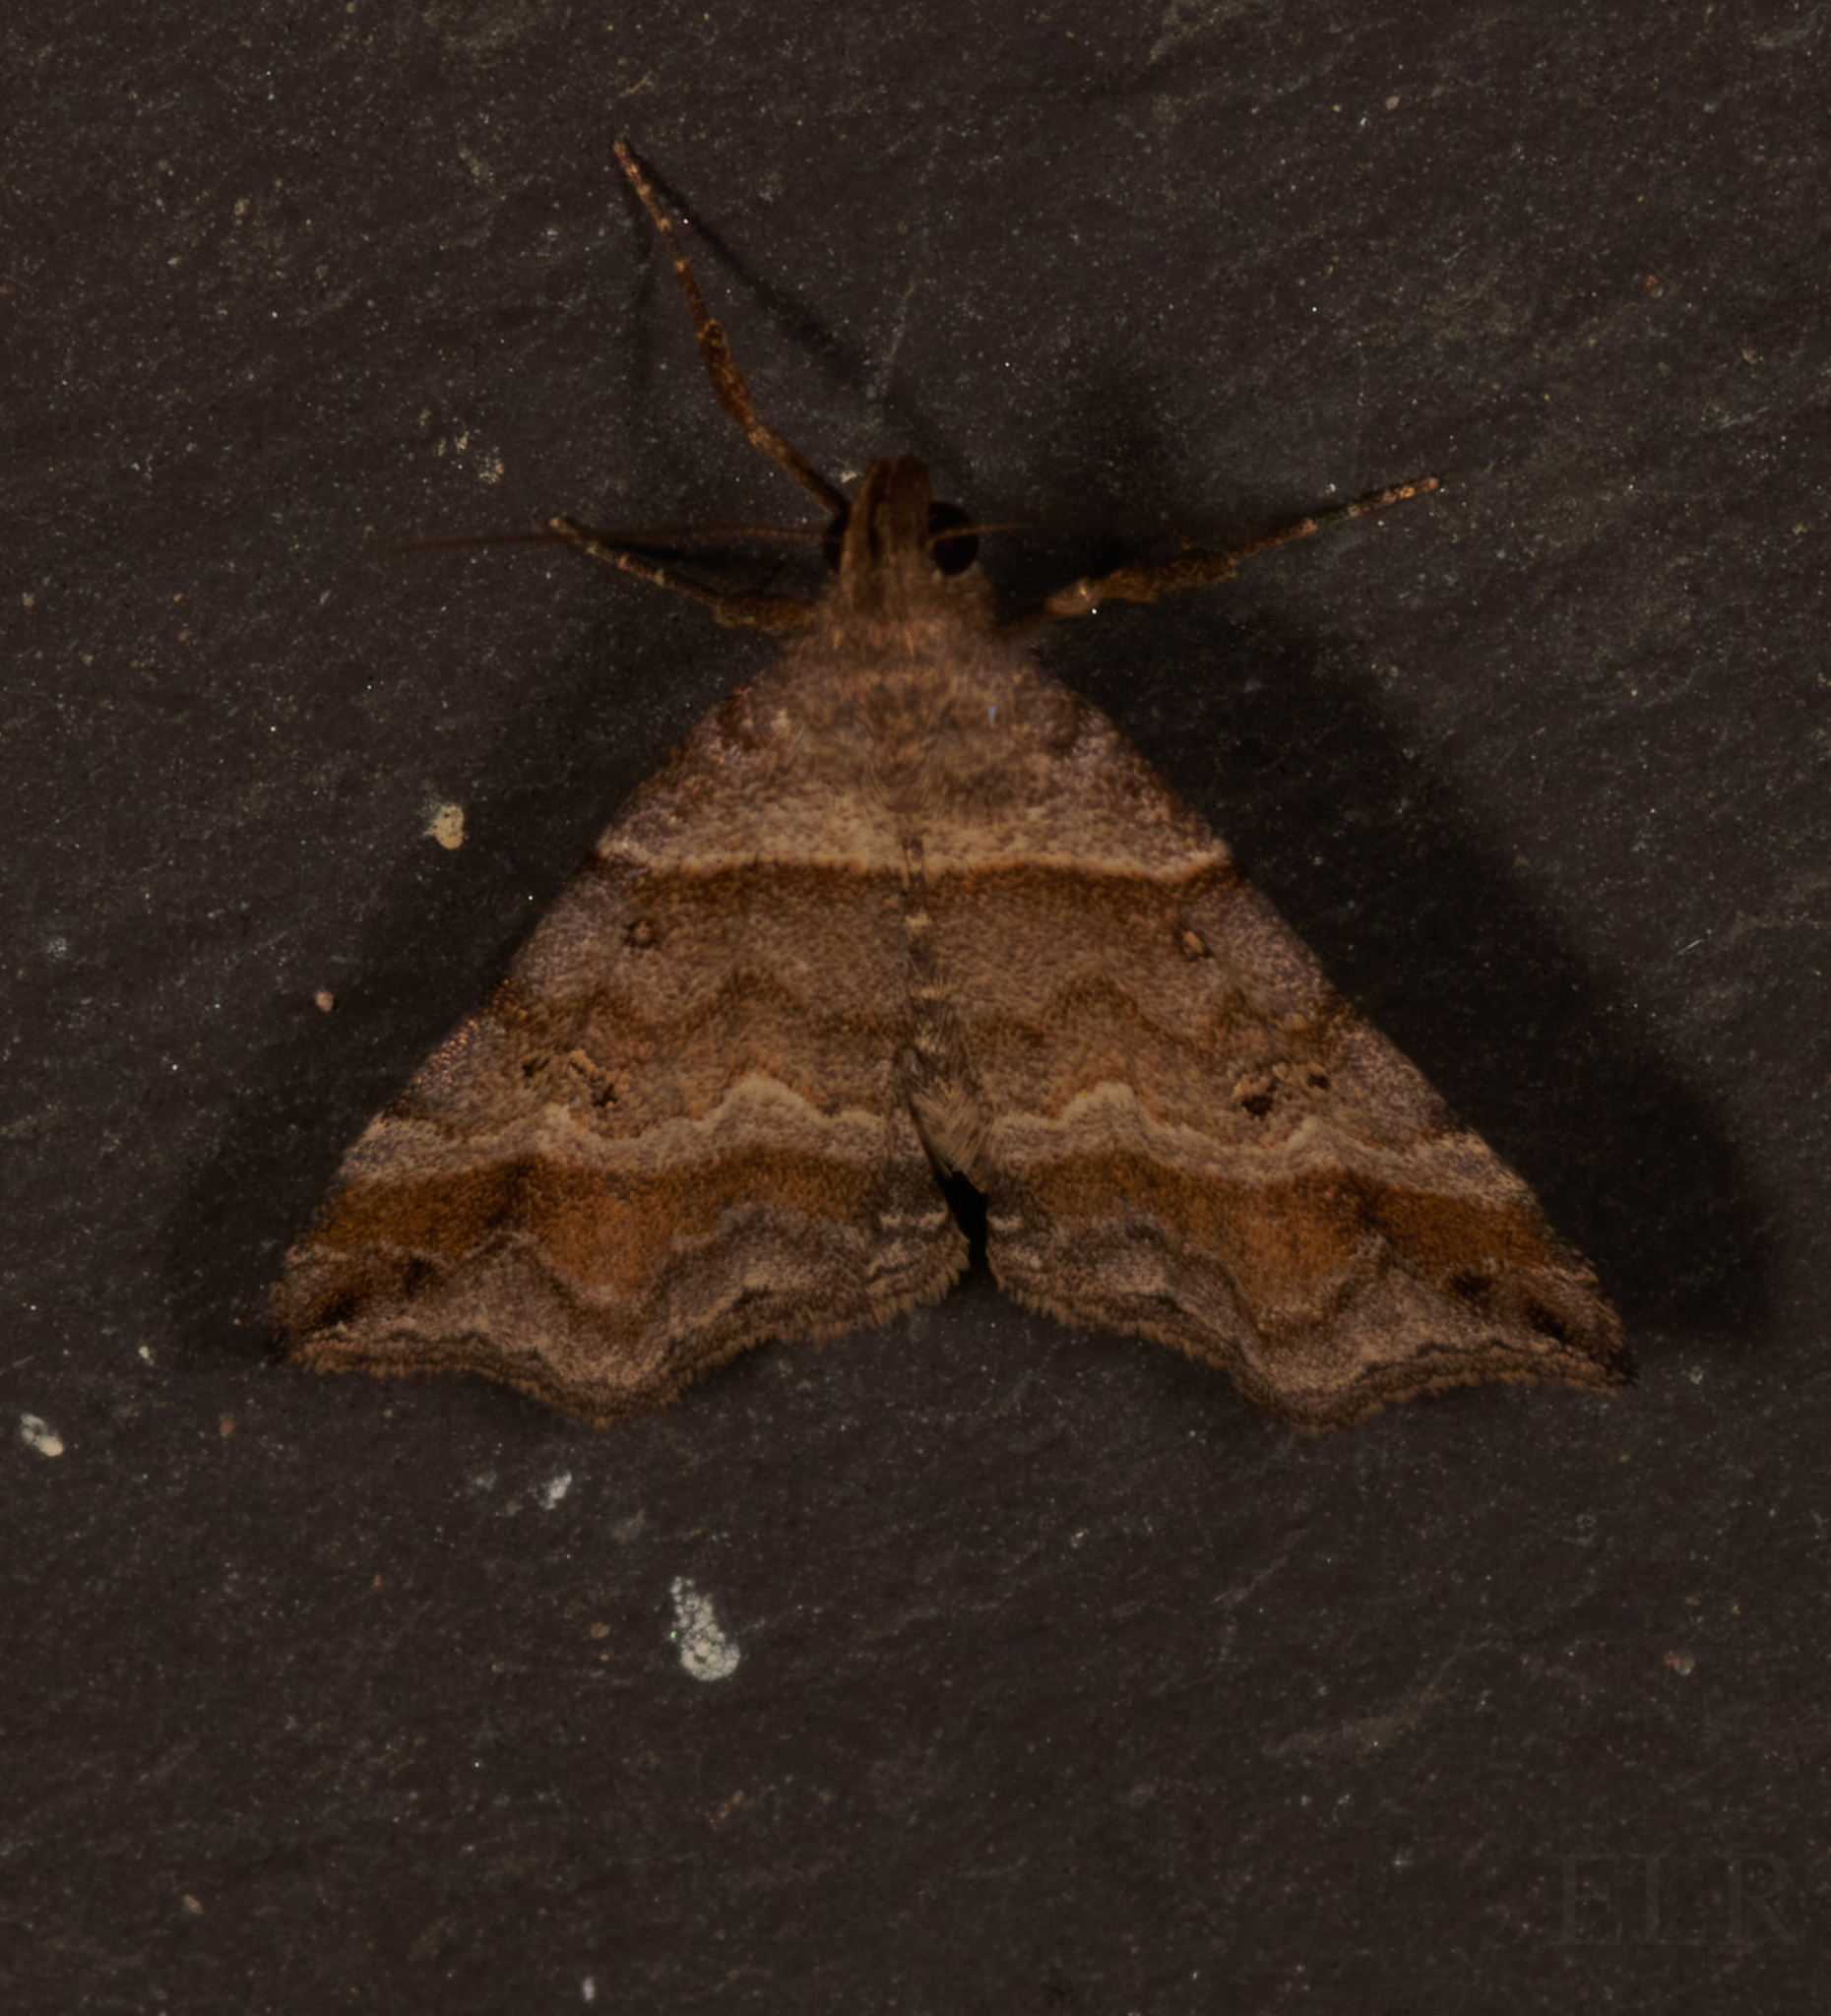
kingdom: Animalia
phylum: Arthropoda
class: Insecta
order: Lepidoptera
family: Erebidae
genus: Phaeolita
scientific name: Phaeolita pyramusalis
